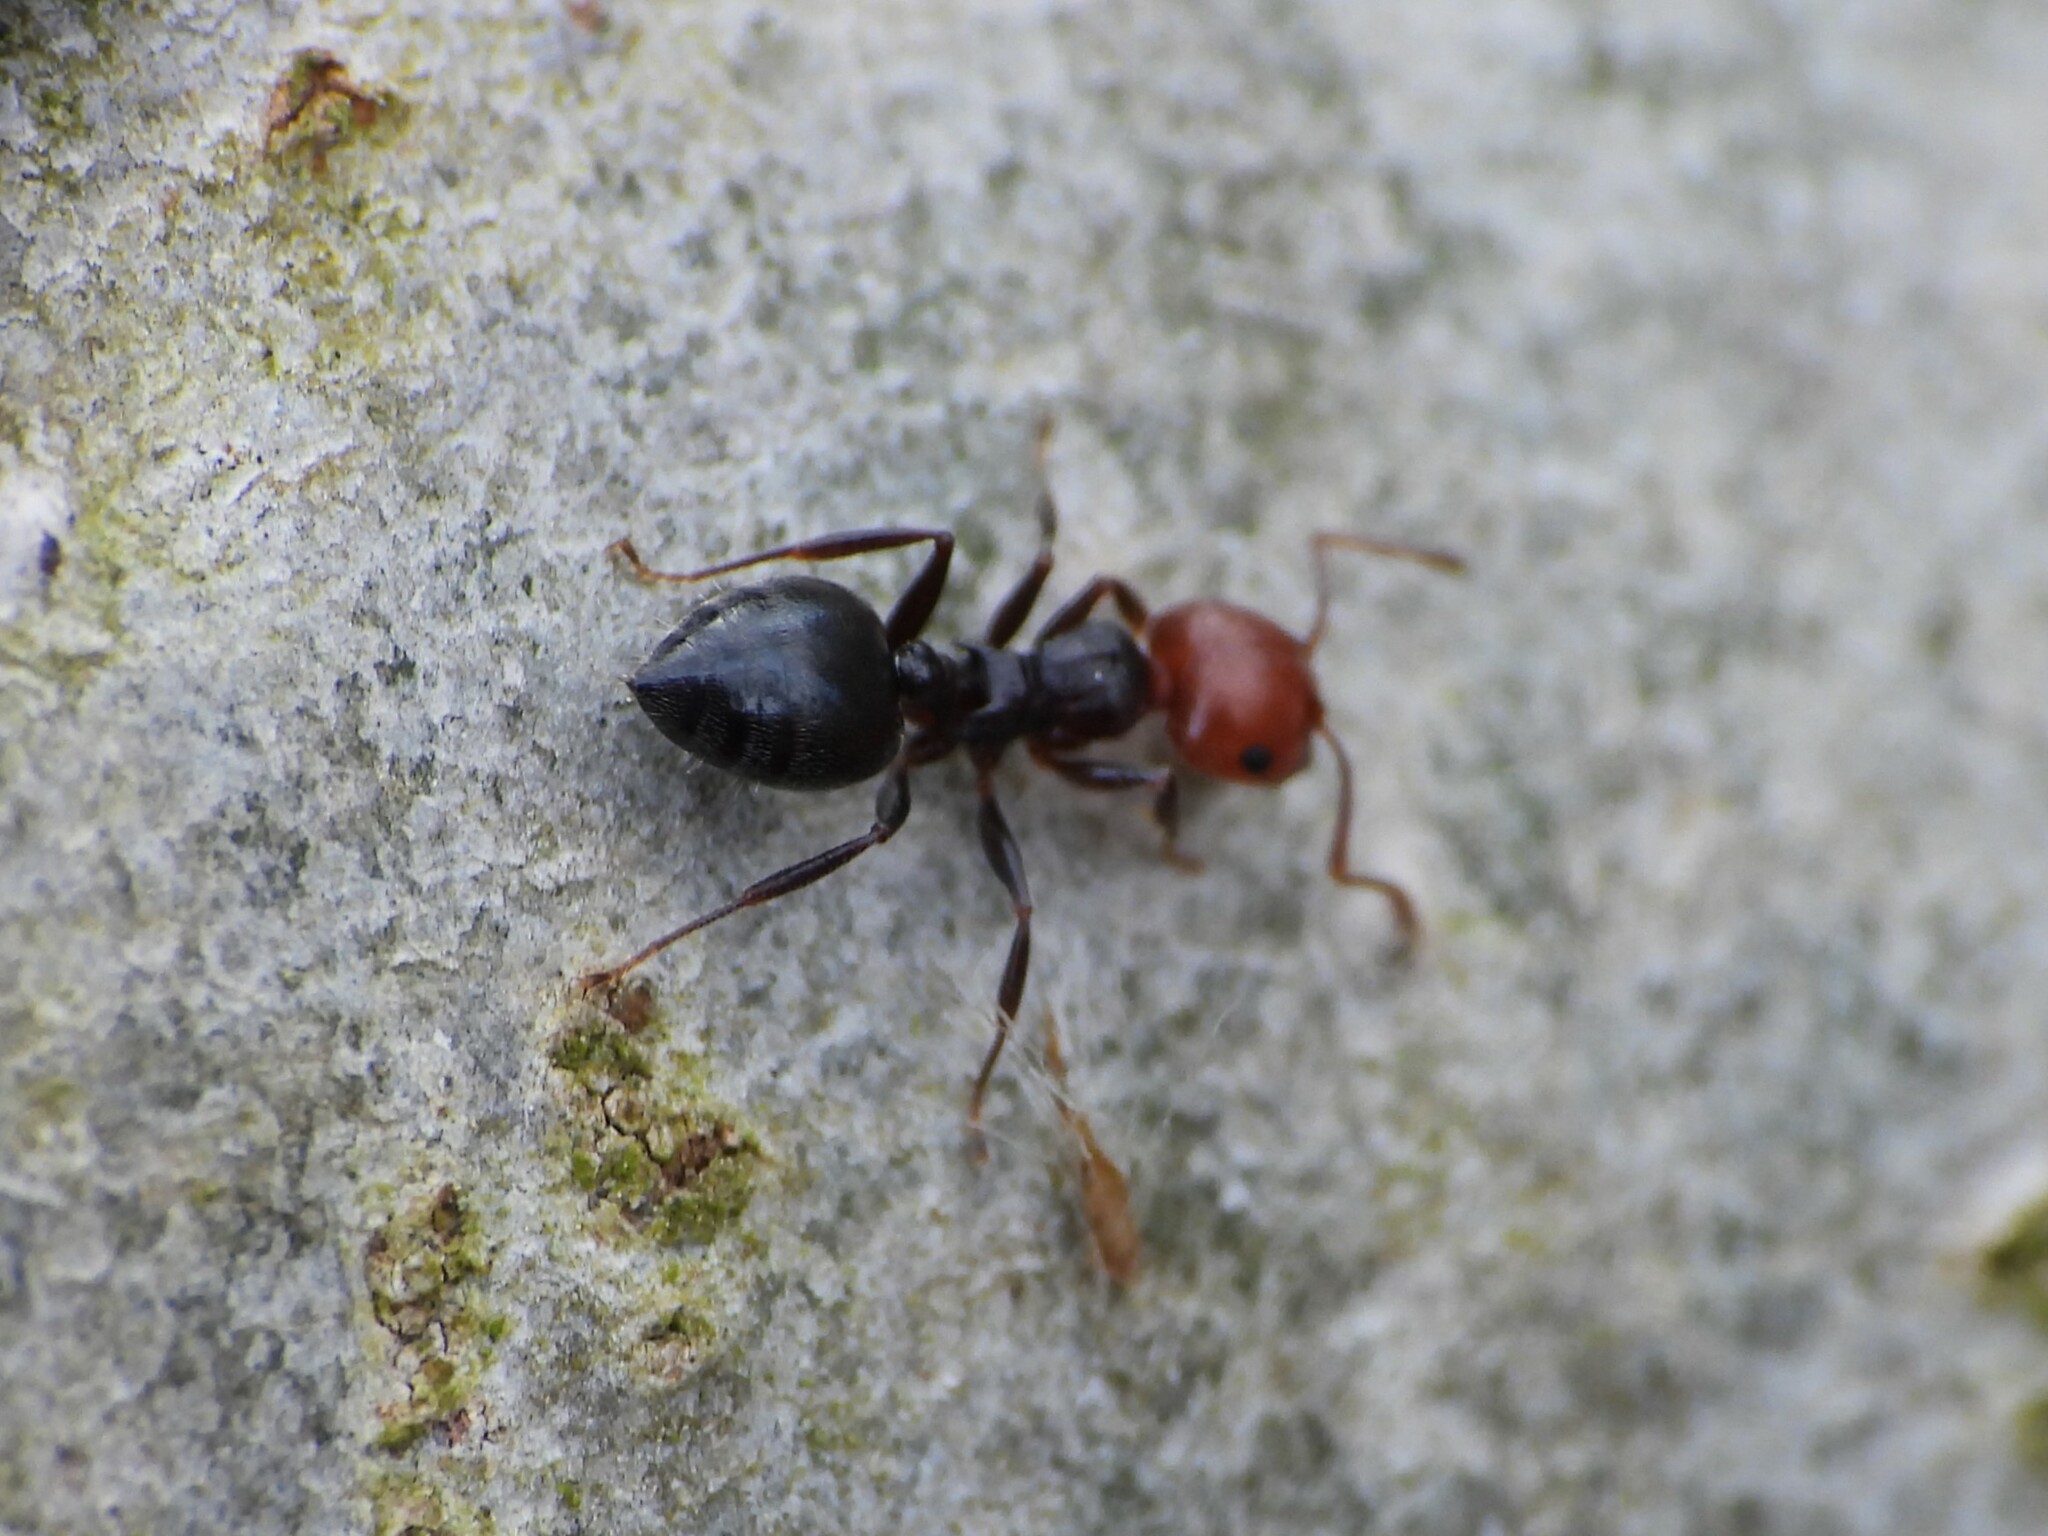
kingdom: Animalia
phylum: Arthropoda
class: Insecta
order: Hymenoptera
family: Formicidae
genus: Crematogaster
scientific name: Crematogaster scutellaris
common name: Fourmi du liège
